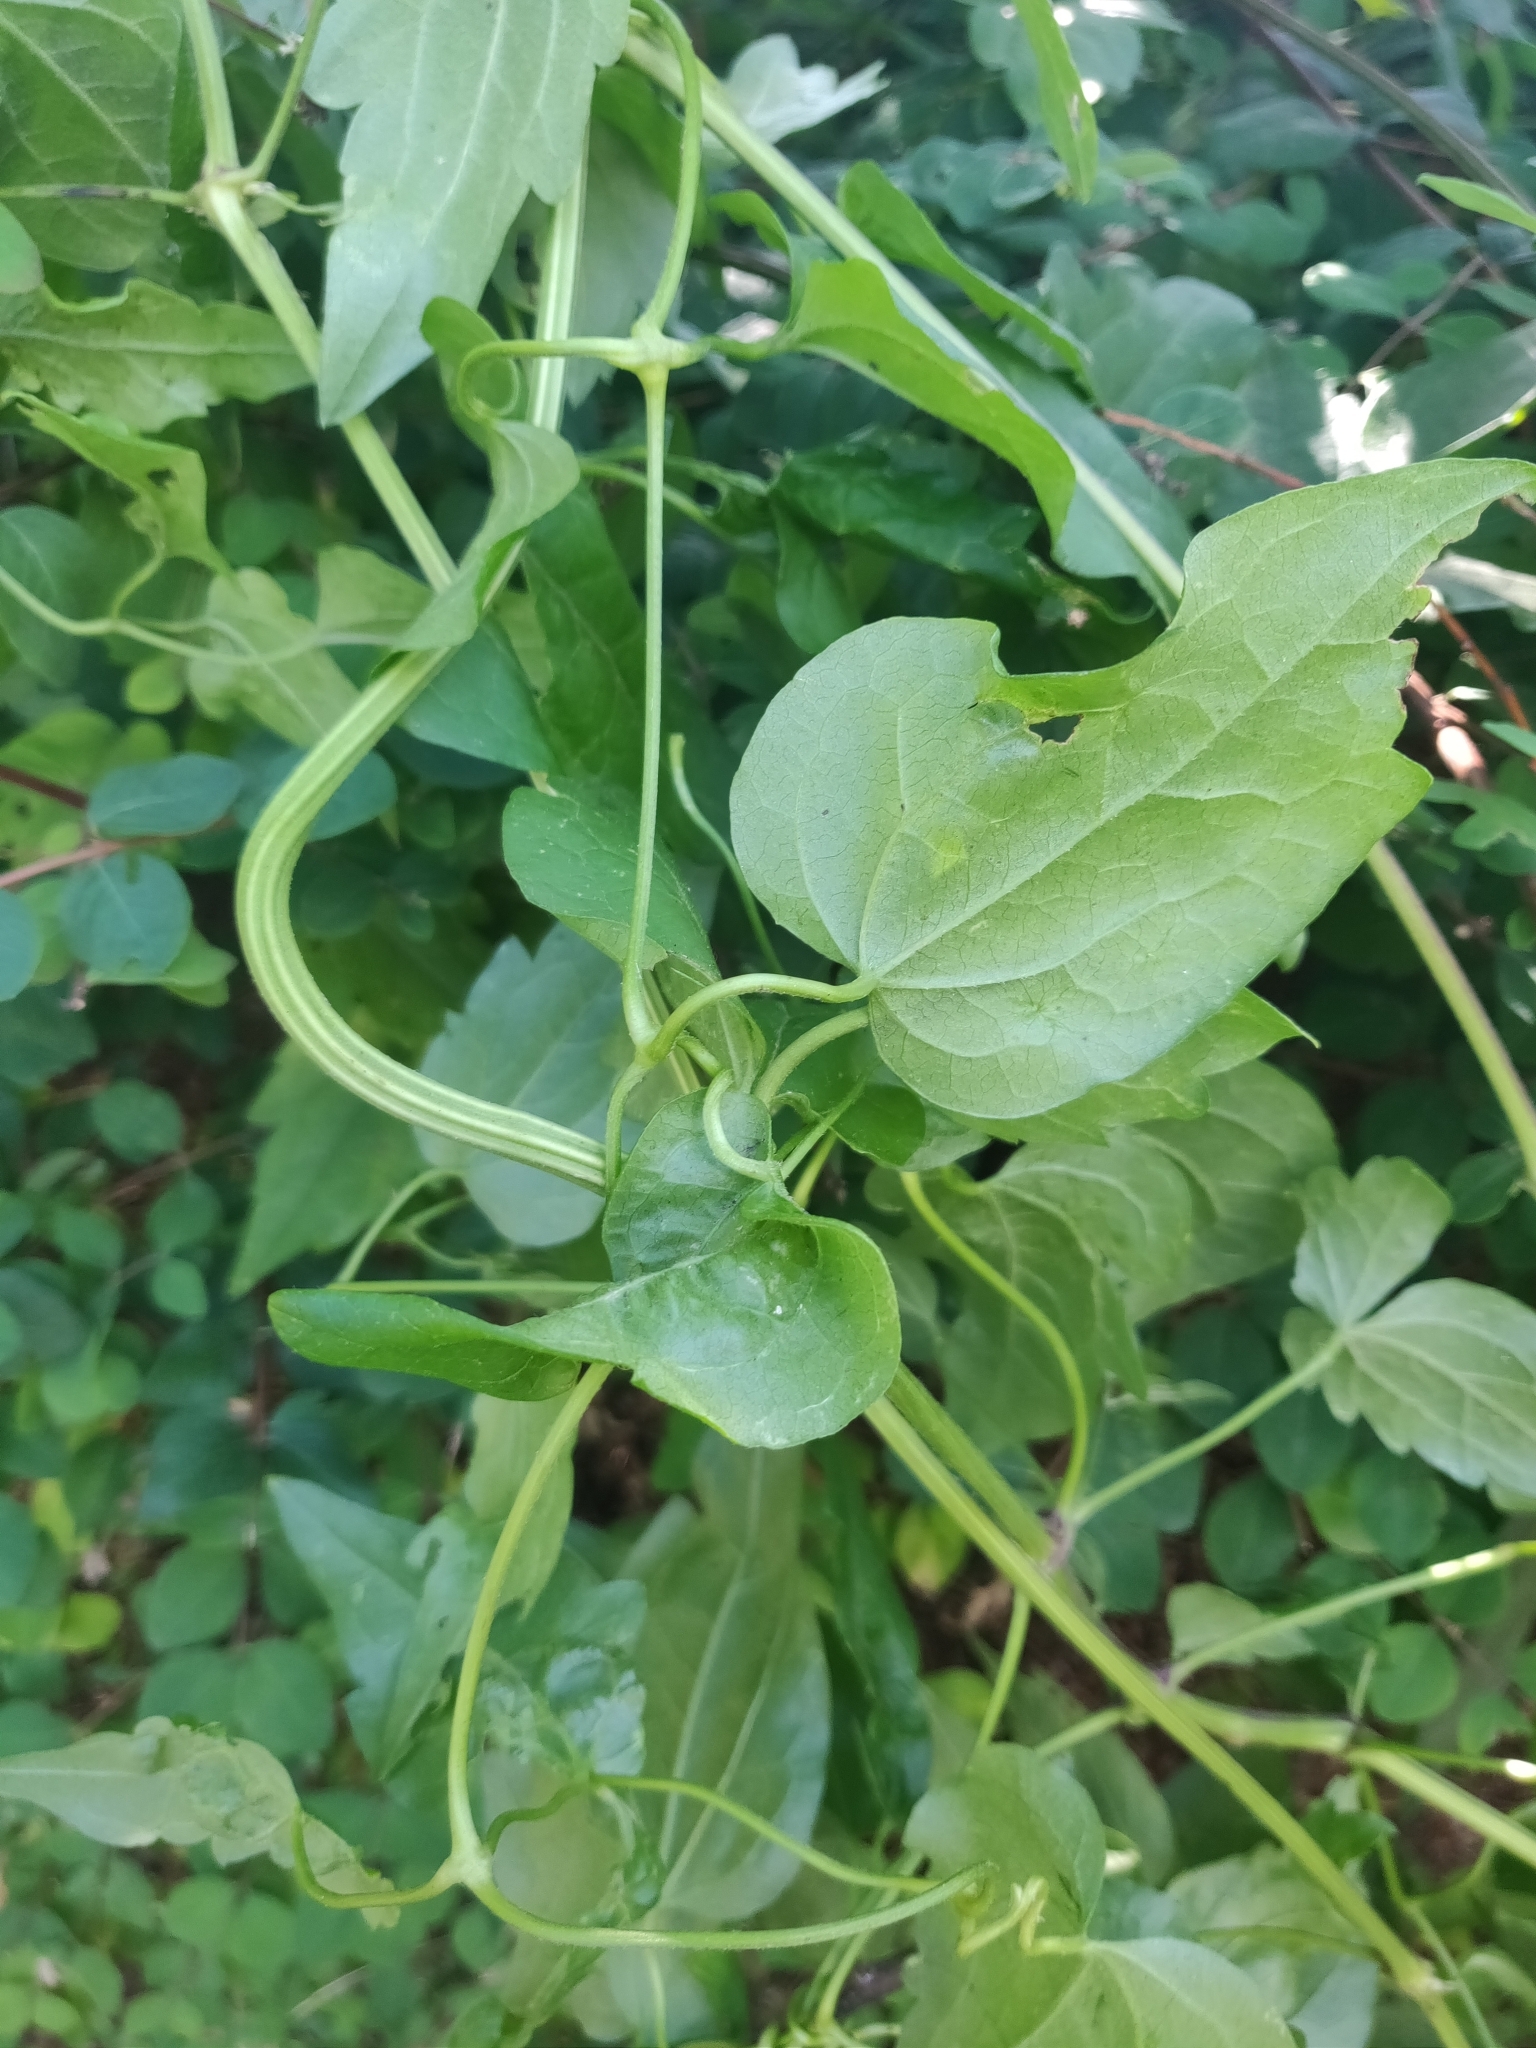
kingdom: Plantae
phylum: Tracheophyta
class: Magnoliopsida
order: Ranunculales
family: Ranunculaceae
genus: Clematis
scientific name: Clematis vitalba
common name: Evergreen clematis
